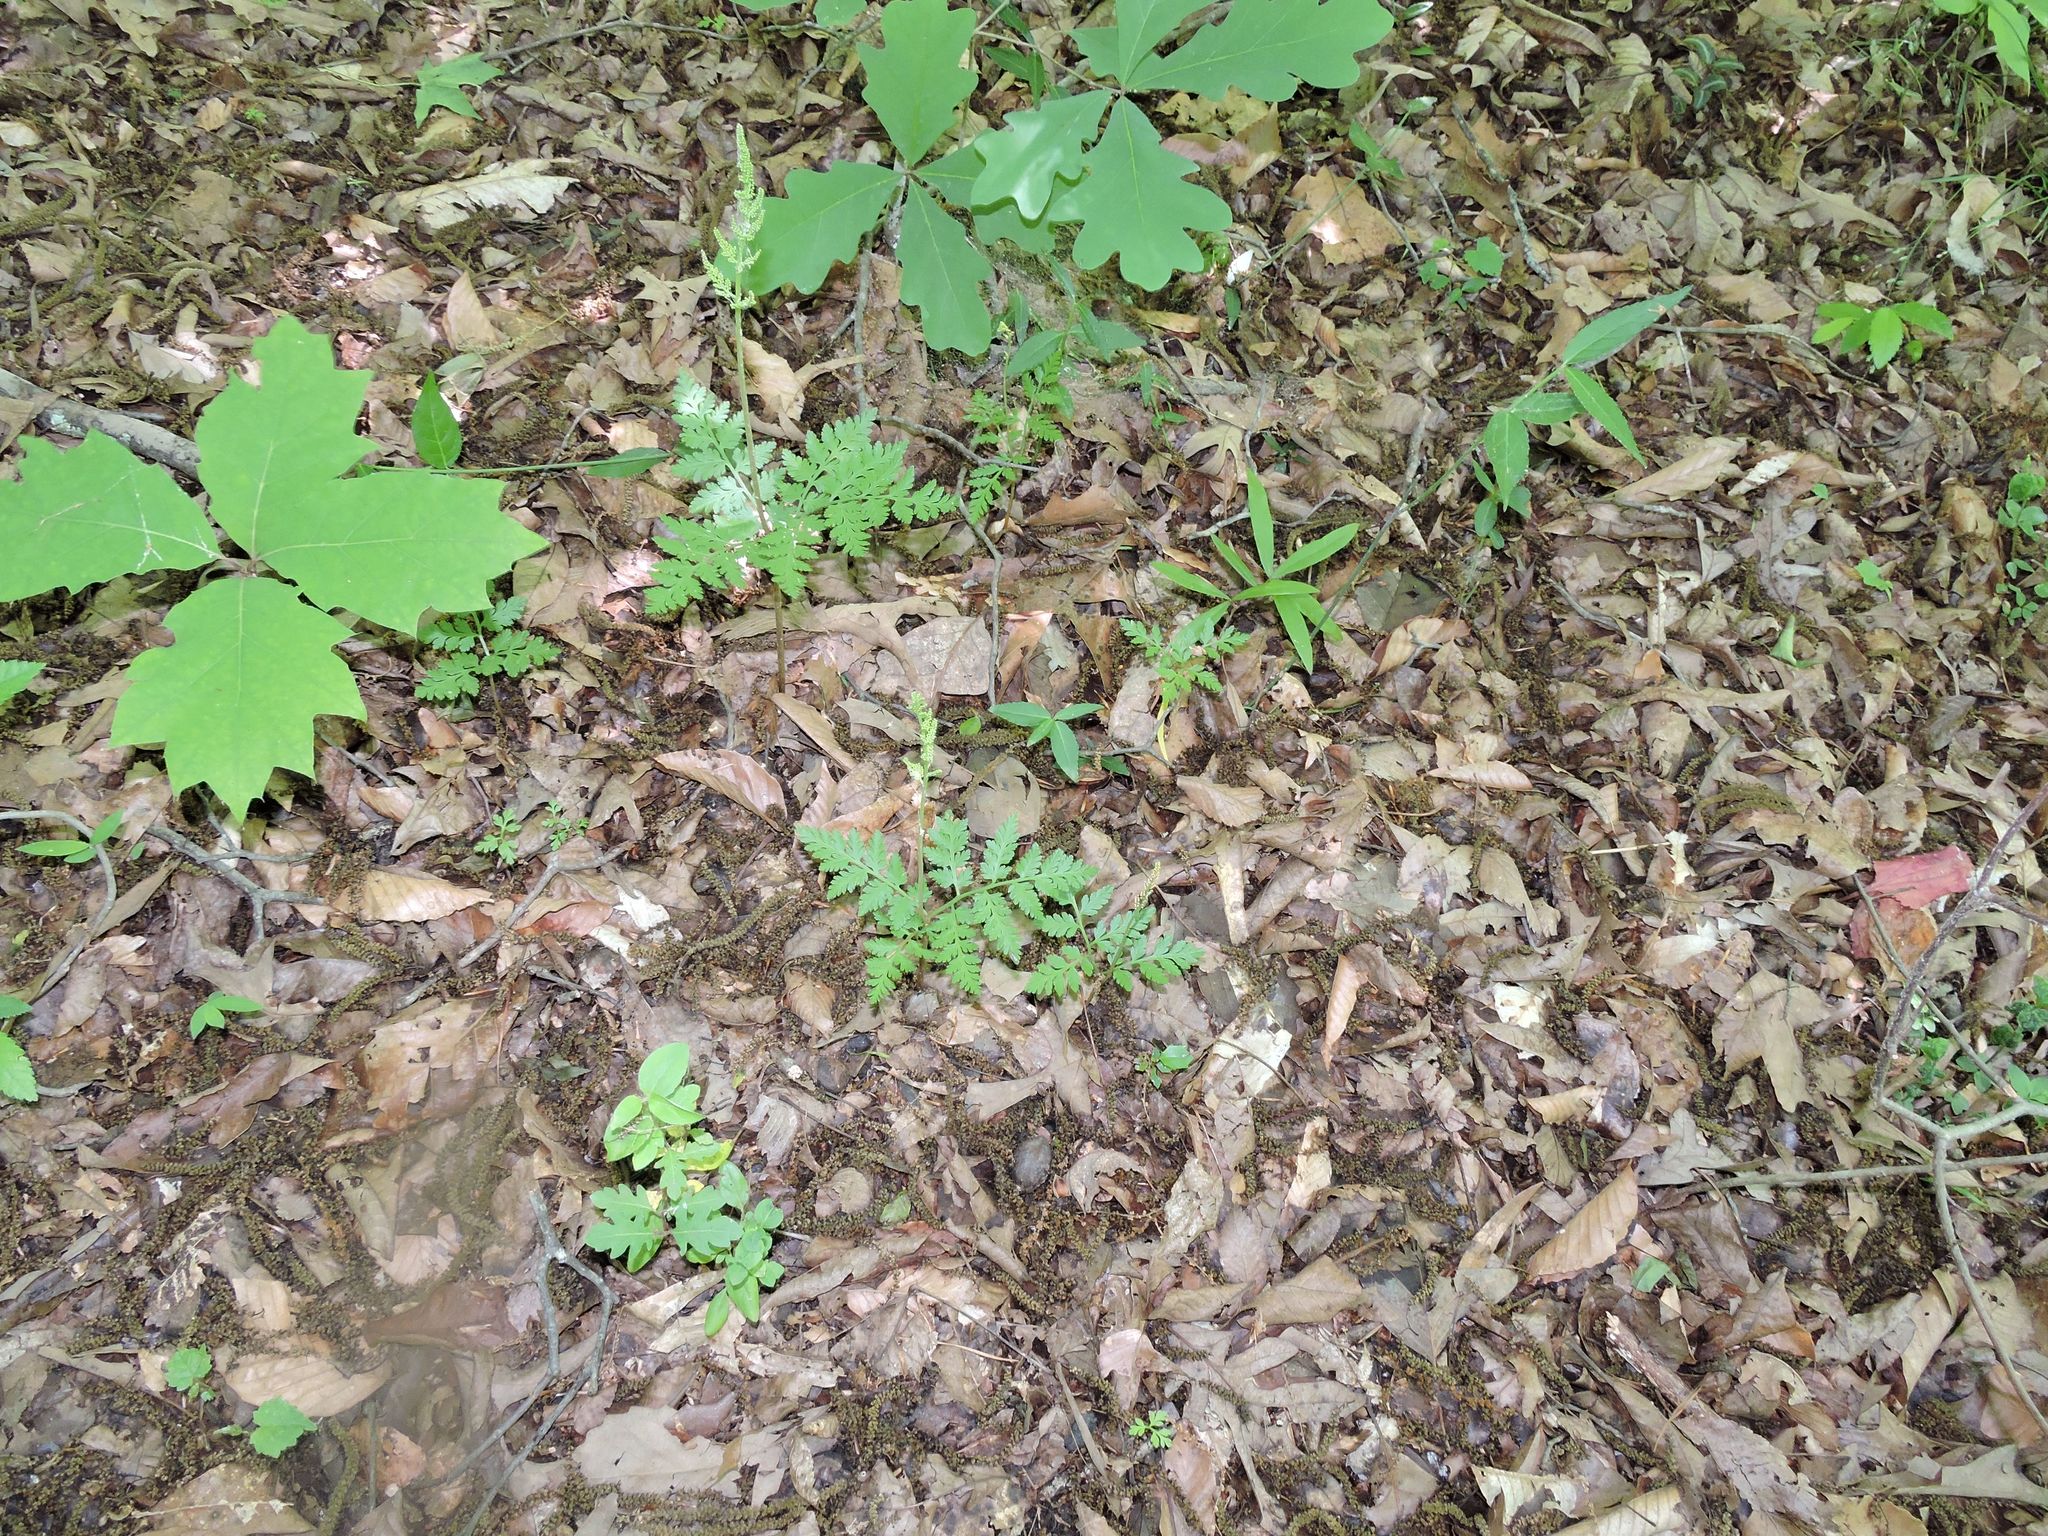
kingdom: Plantae
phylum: Tracheophyta
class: Polypodiopsida
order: Ophioglossales
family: Ophioglossaceae
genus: Botrypus
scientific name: Botrypus virginianus
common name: Common grapefern
